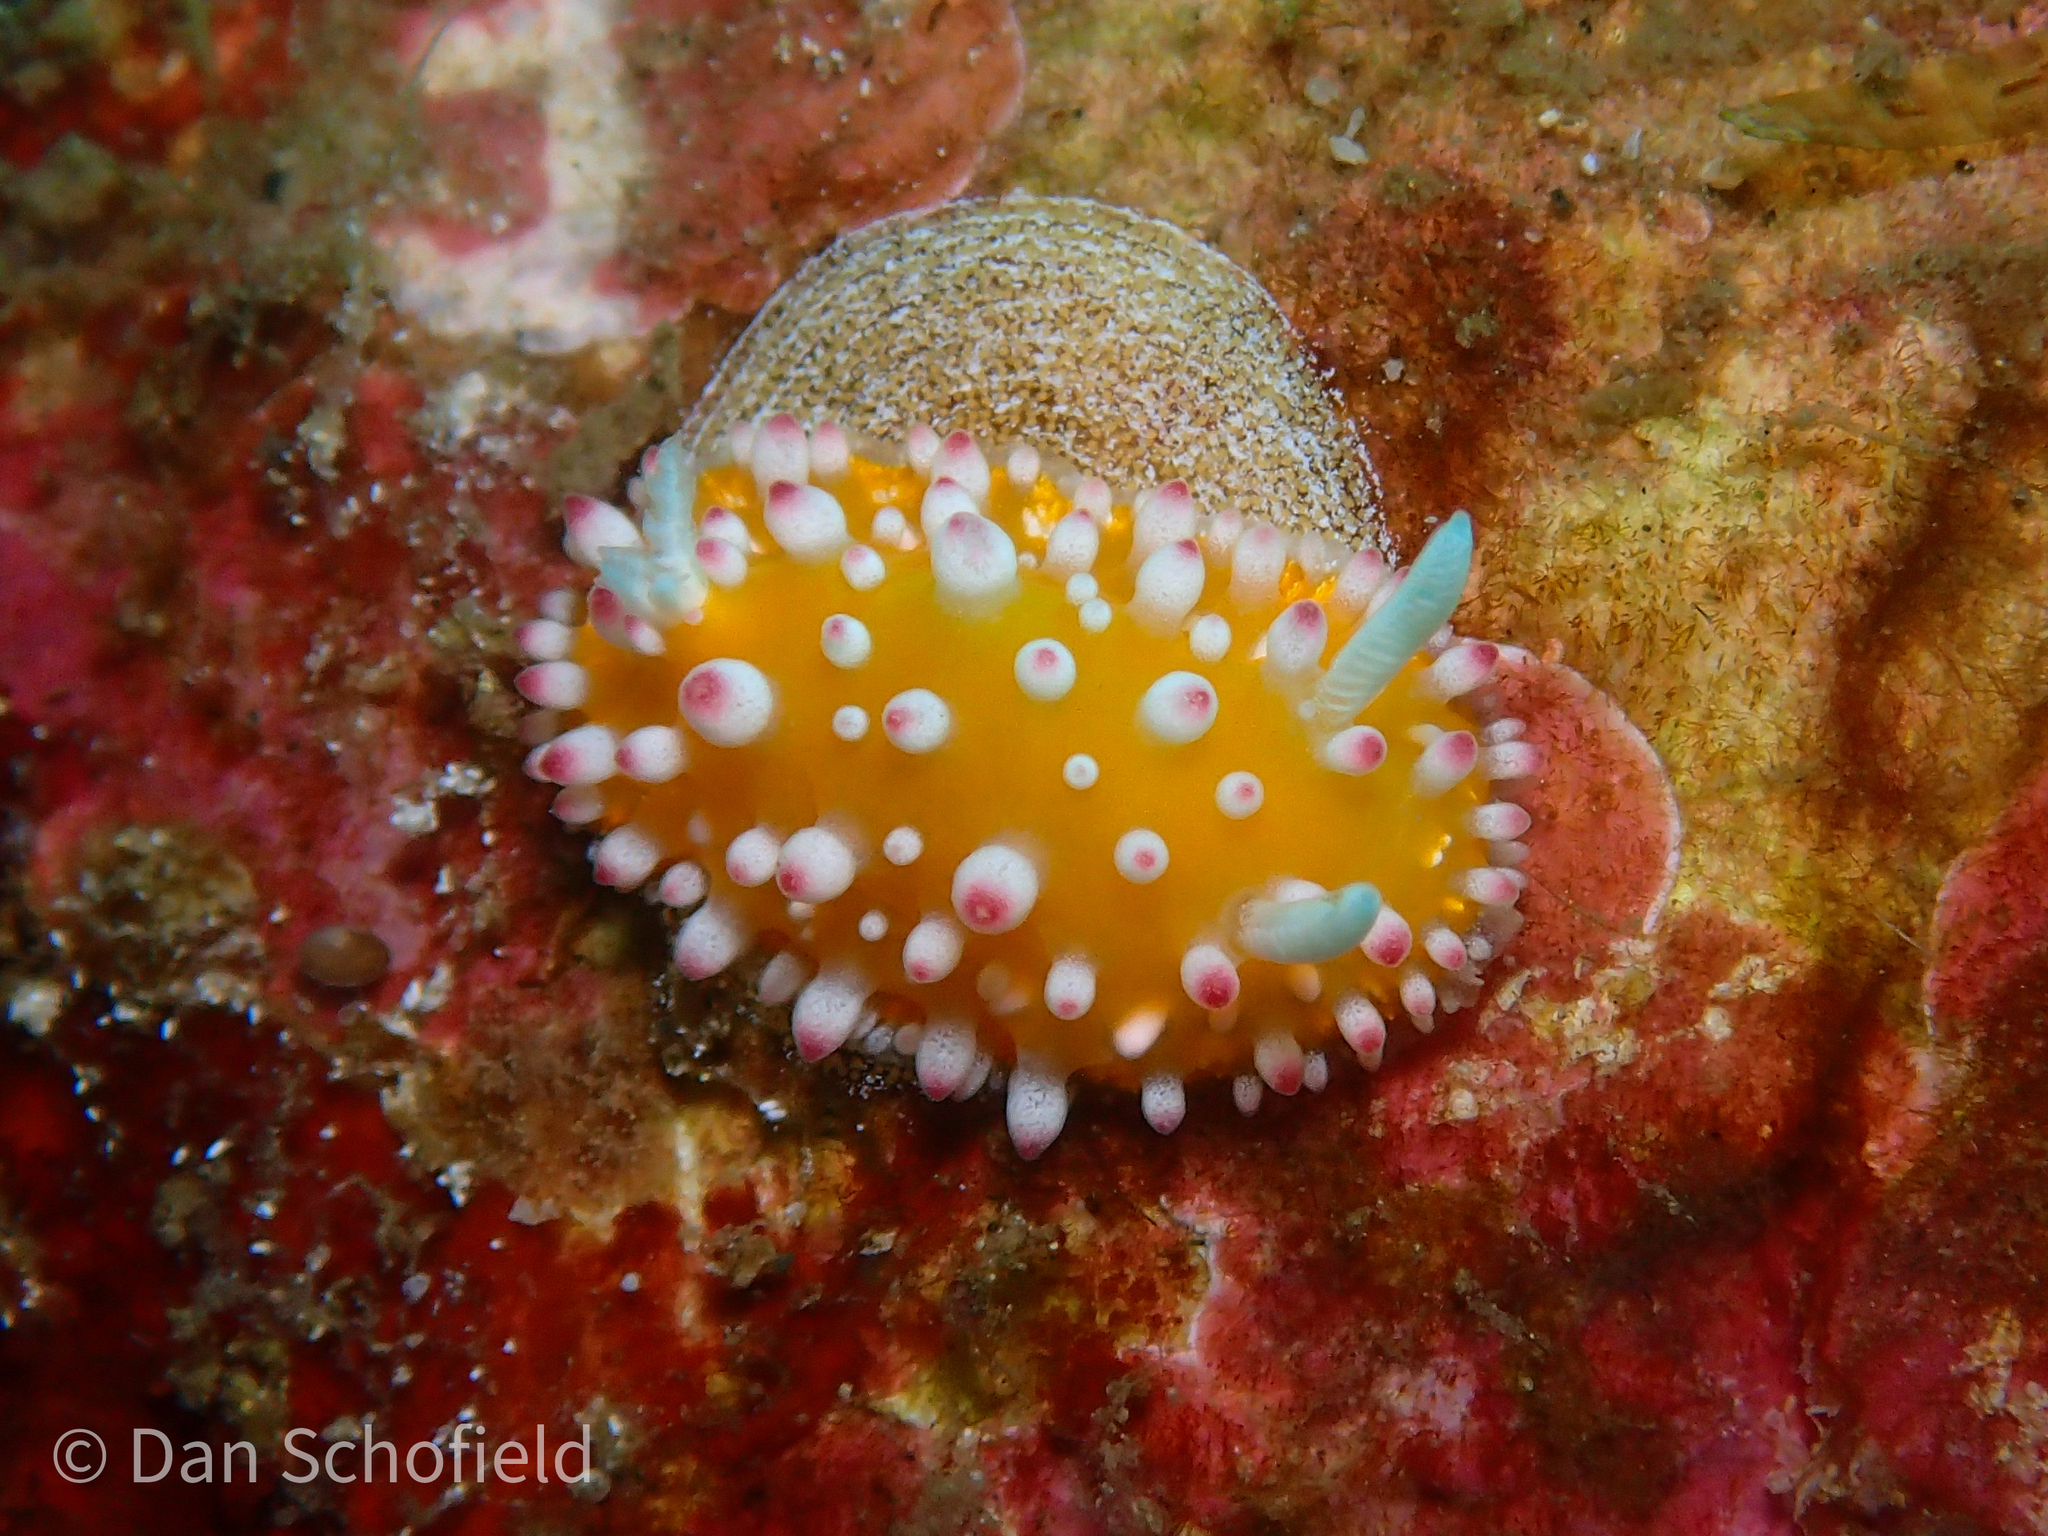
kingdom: Animalia
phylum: Mollusca
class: Gastropoda
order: Nudibranchia
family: Cadlinellidae
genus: Cadlinella
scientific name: Cadlinella ornatissima
